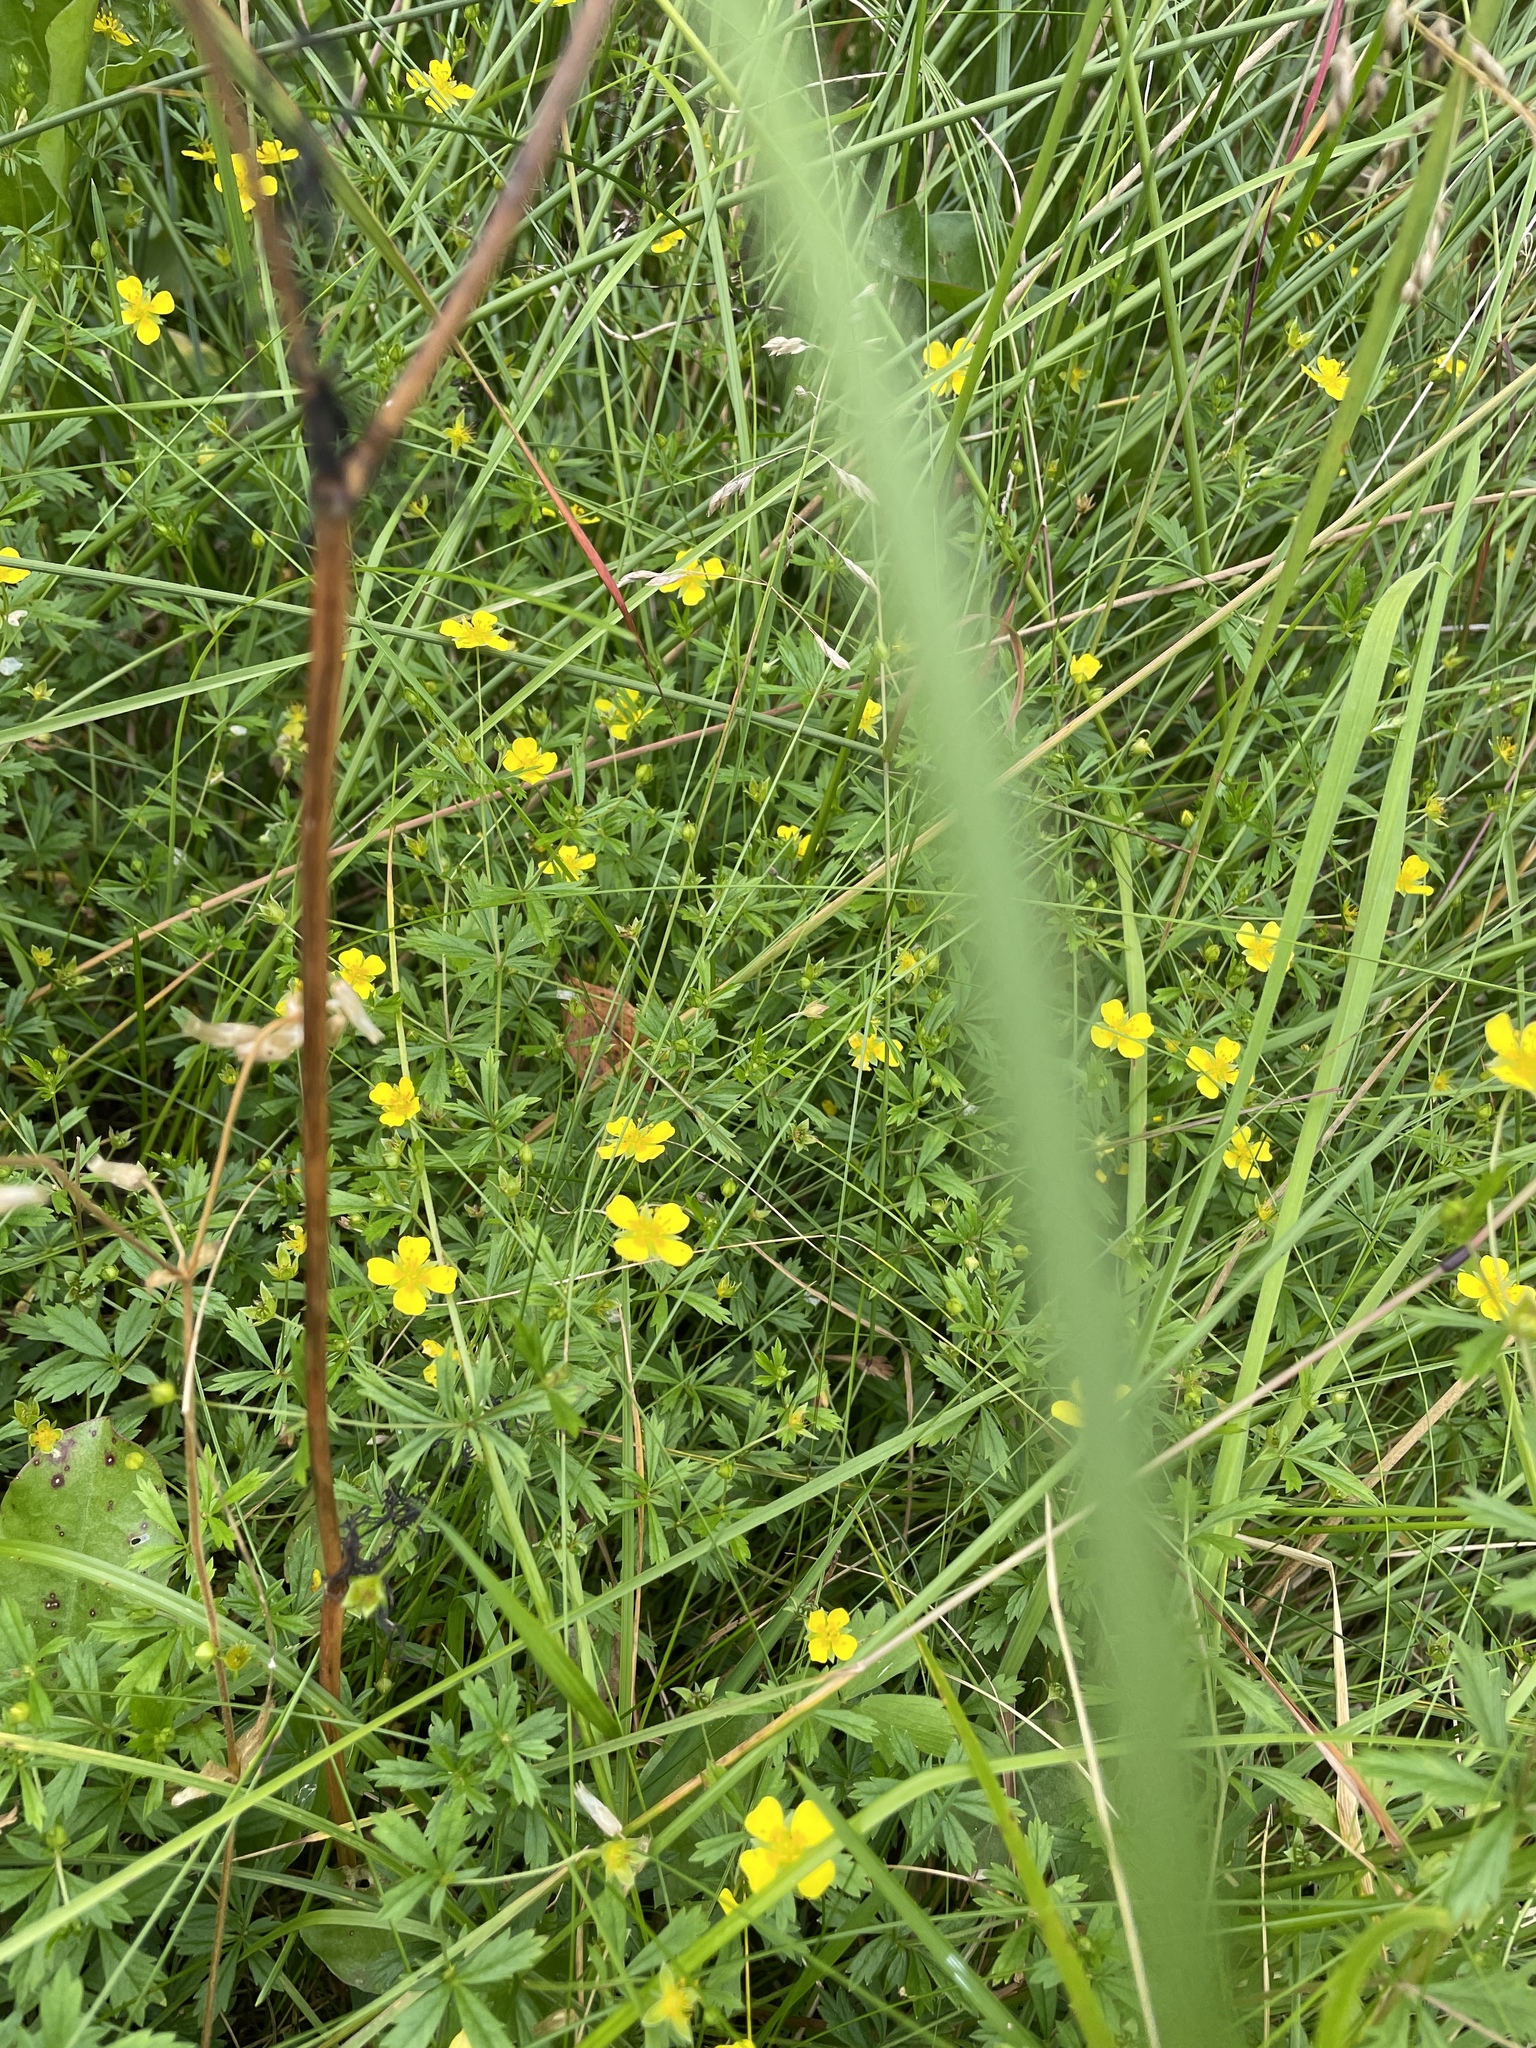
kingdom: Plantae
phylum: Tracheophyta
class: Magnoliopsida
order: Rosales
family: Rosaceae
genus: Potentilla
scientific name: Potentilla erecta
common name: Tormentil
